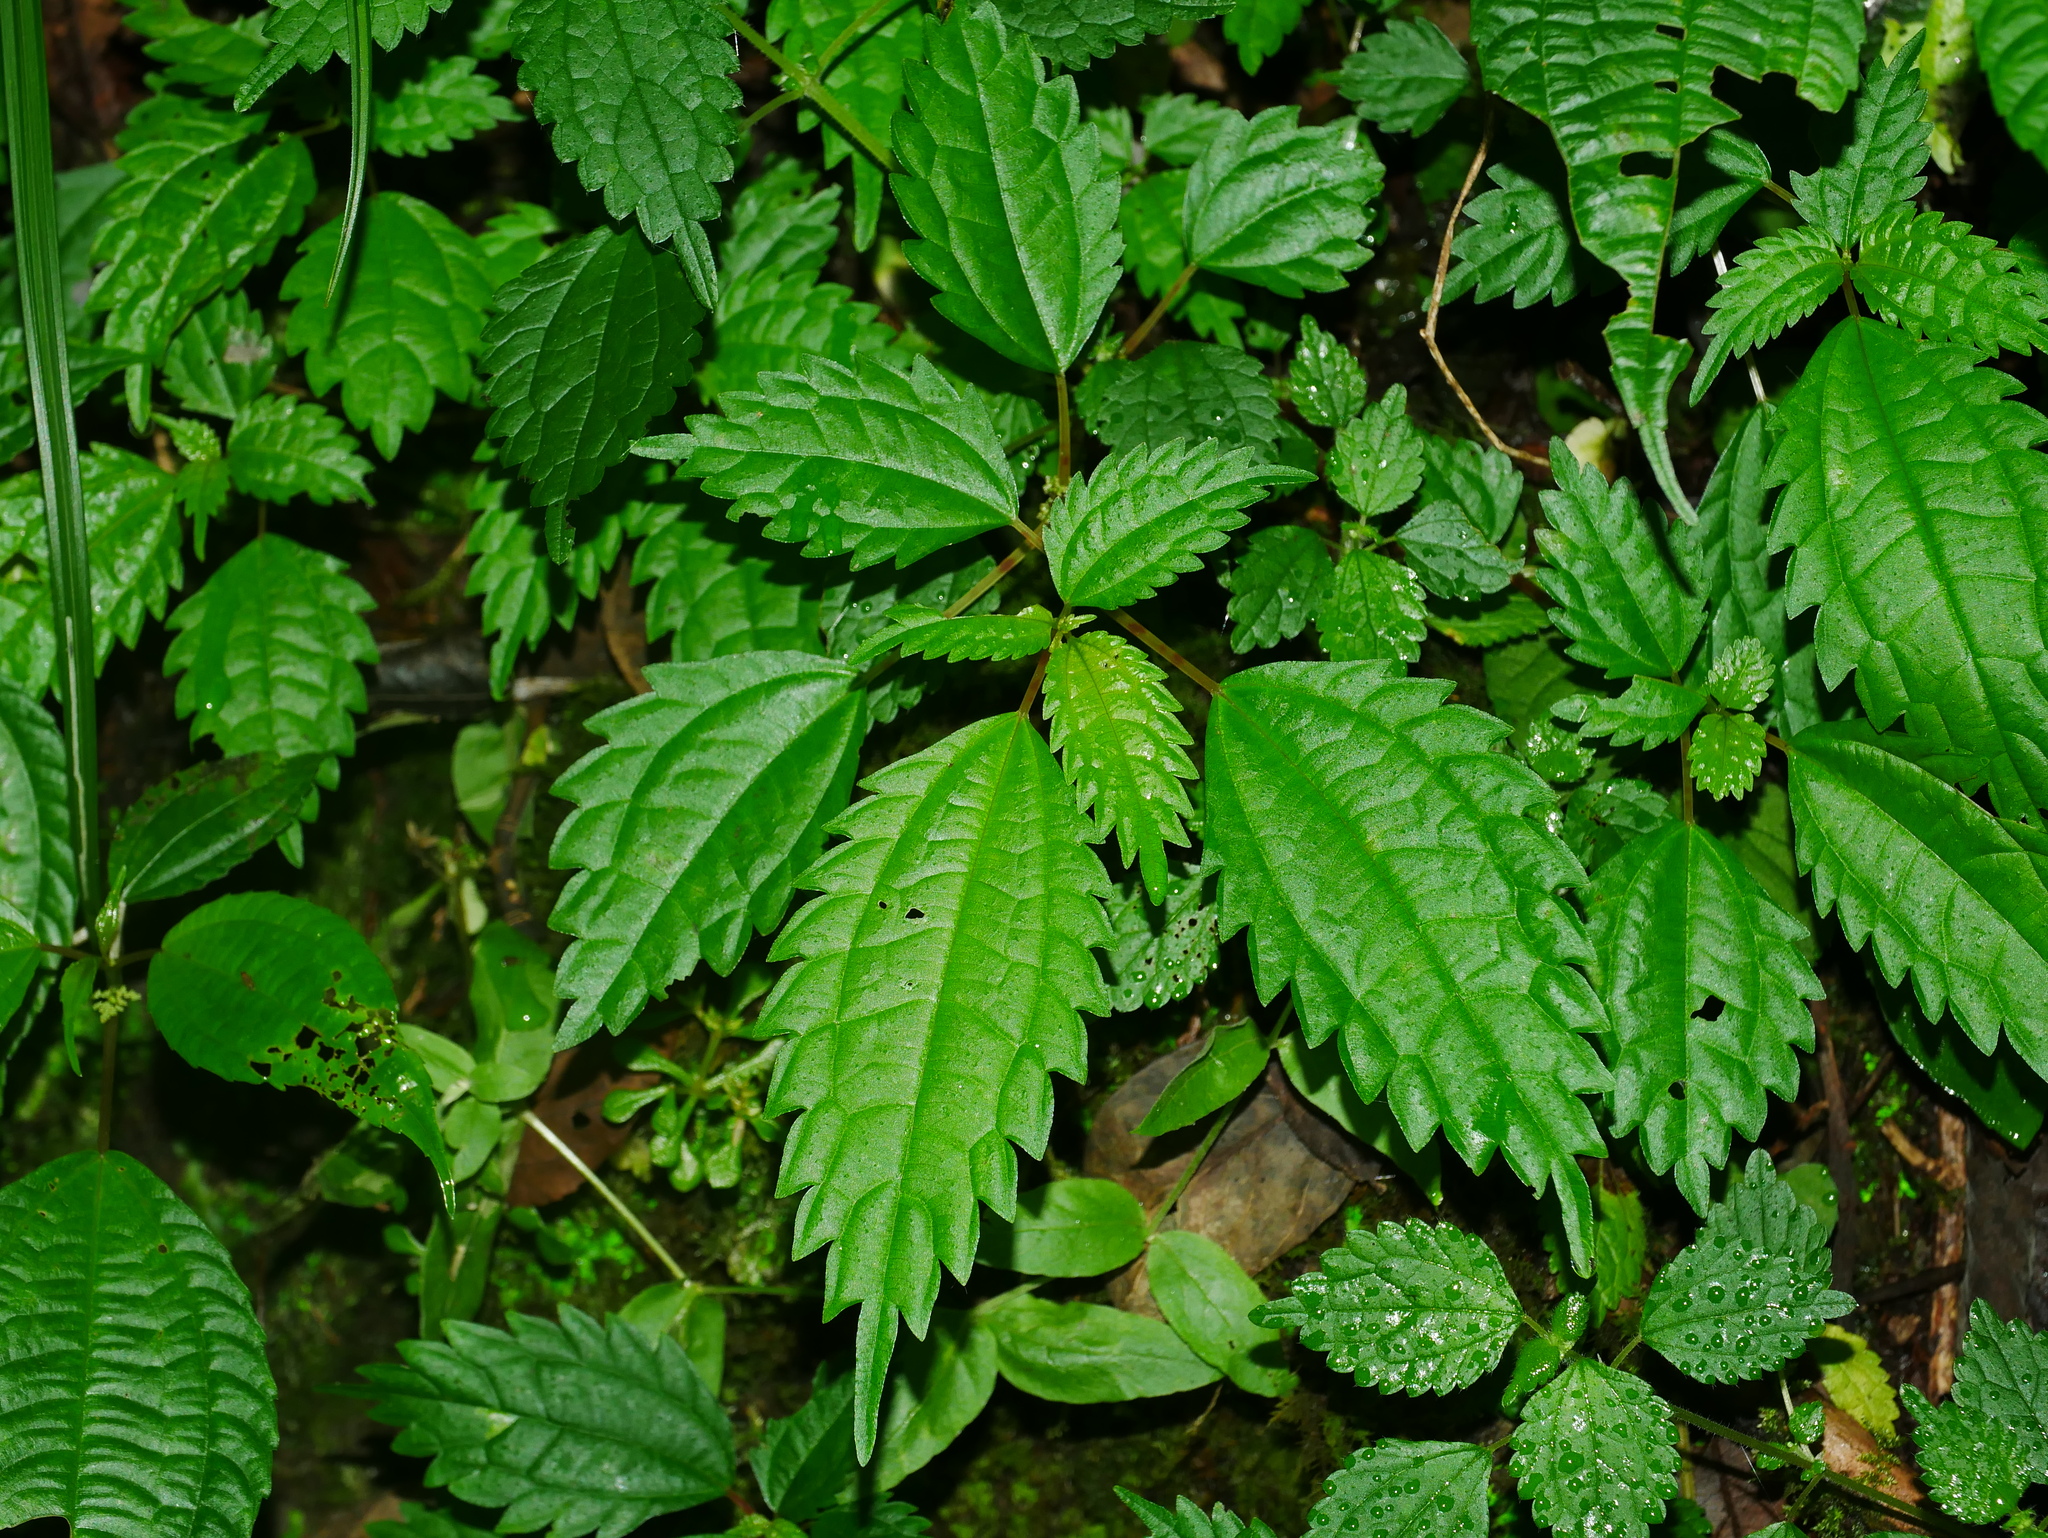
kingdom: Plantae
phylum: Tracheophyta
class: Magnoliopsida
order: Rosales
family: Urticaceae
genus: Droguetia
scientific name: Droguetia iners
